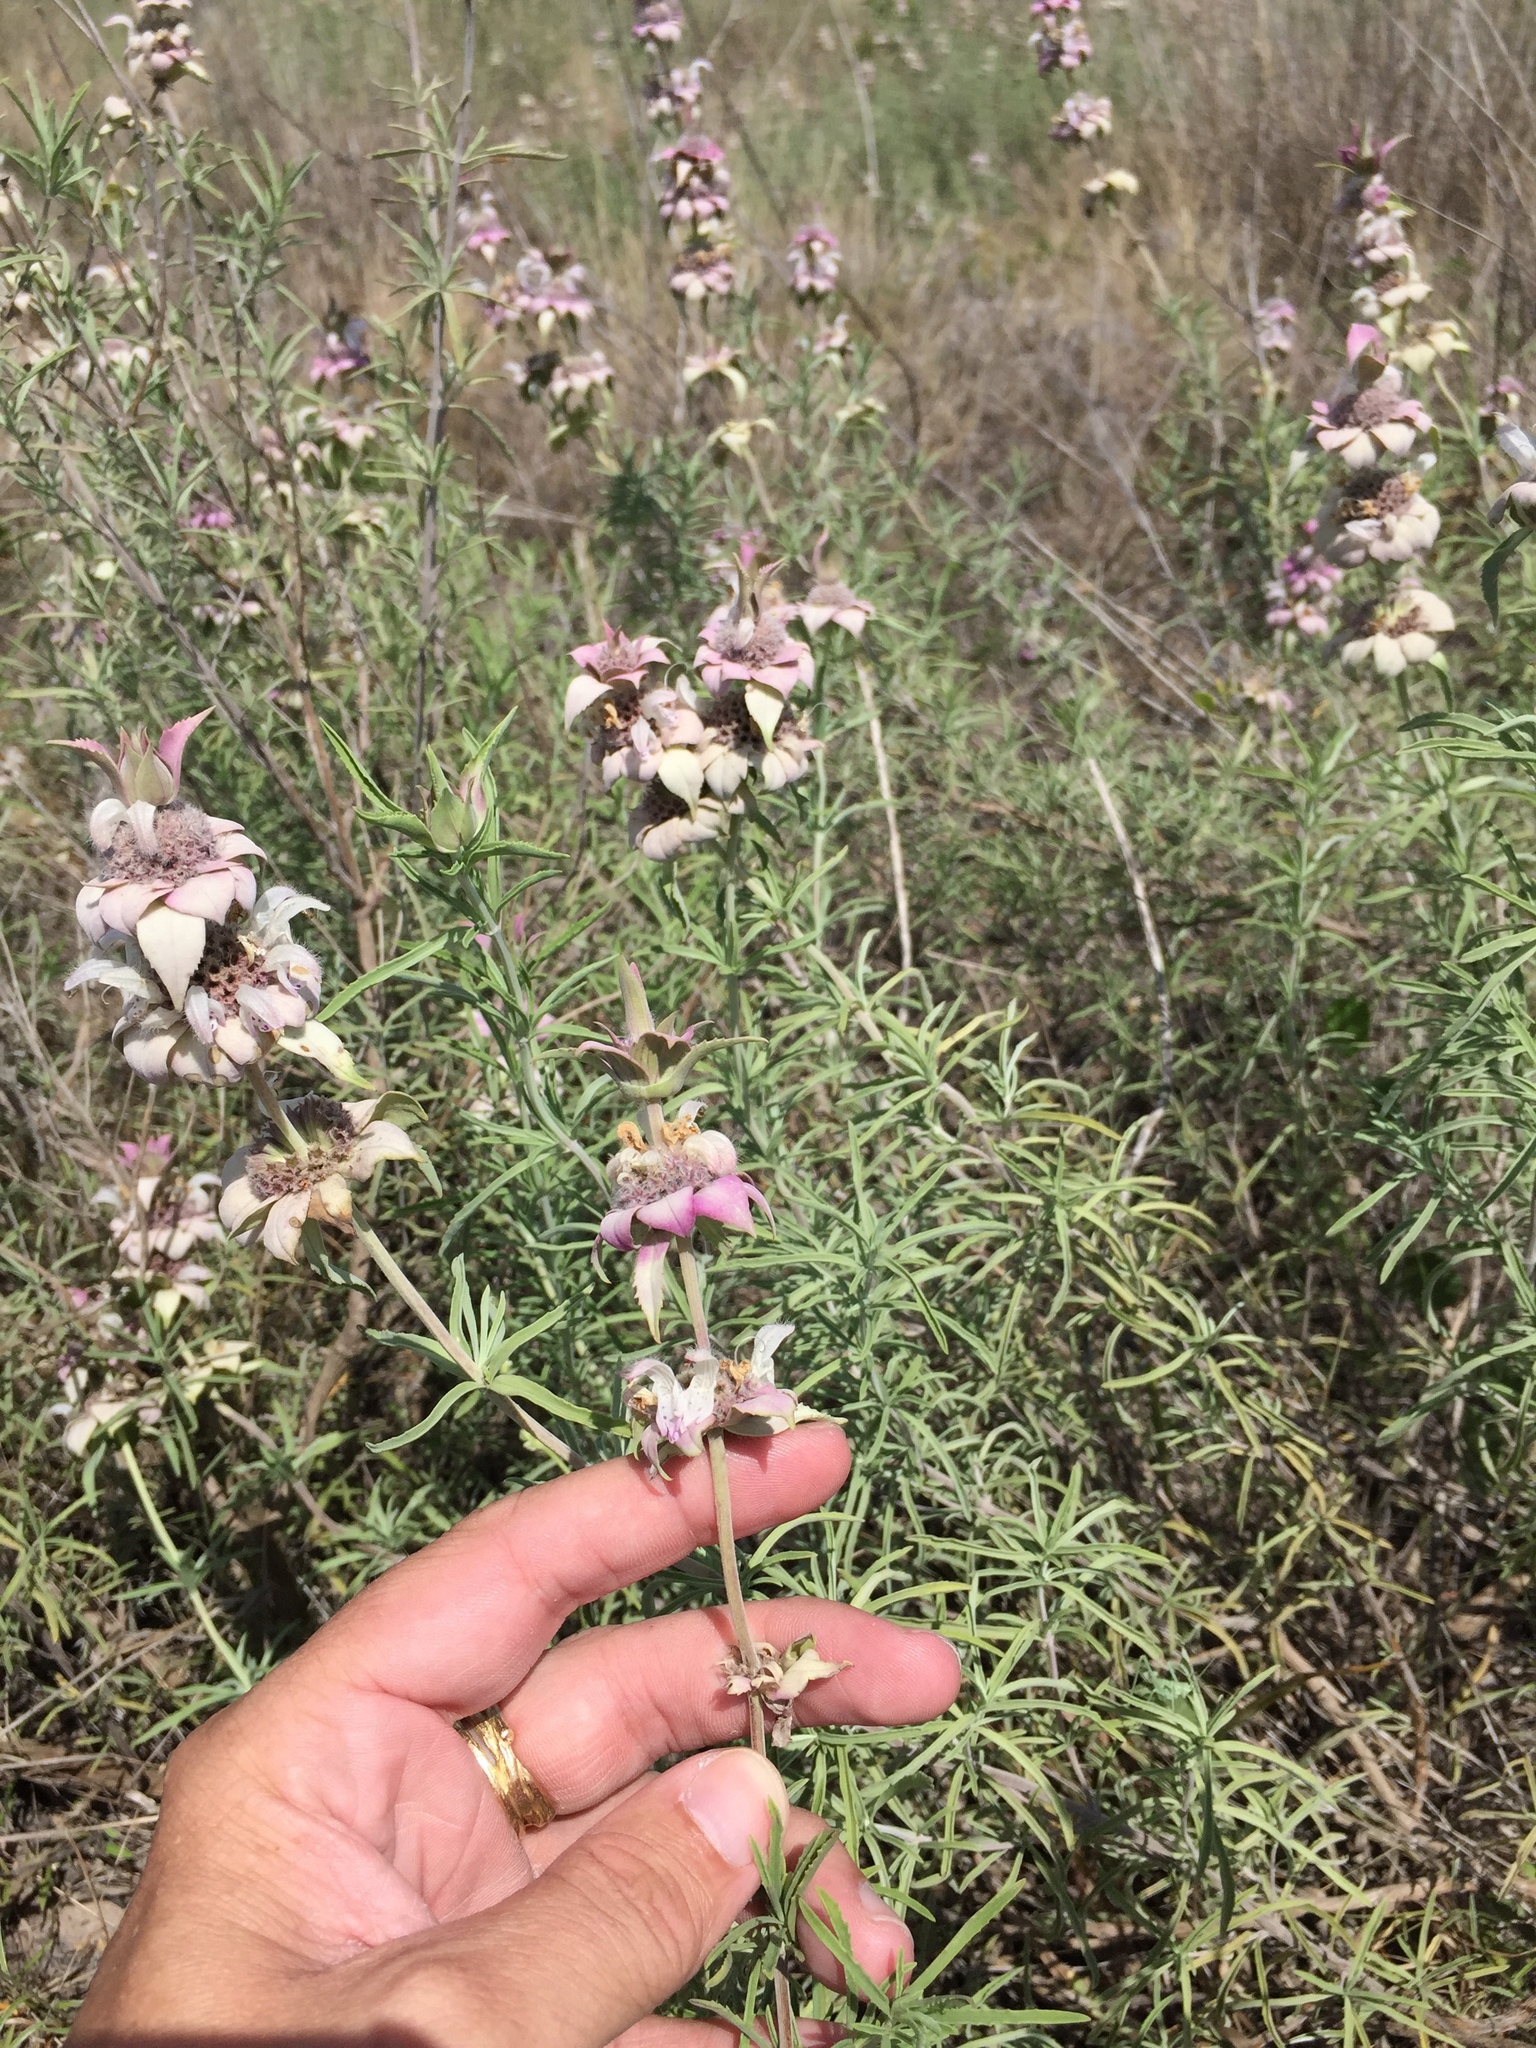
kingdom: Plantae
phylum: Tracheophyta
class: Magnoliopsida
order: Lamiales
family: Lamiaceae
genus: Monarda
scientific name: Monarda fruticulosa
